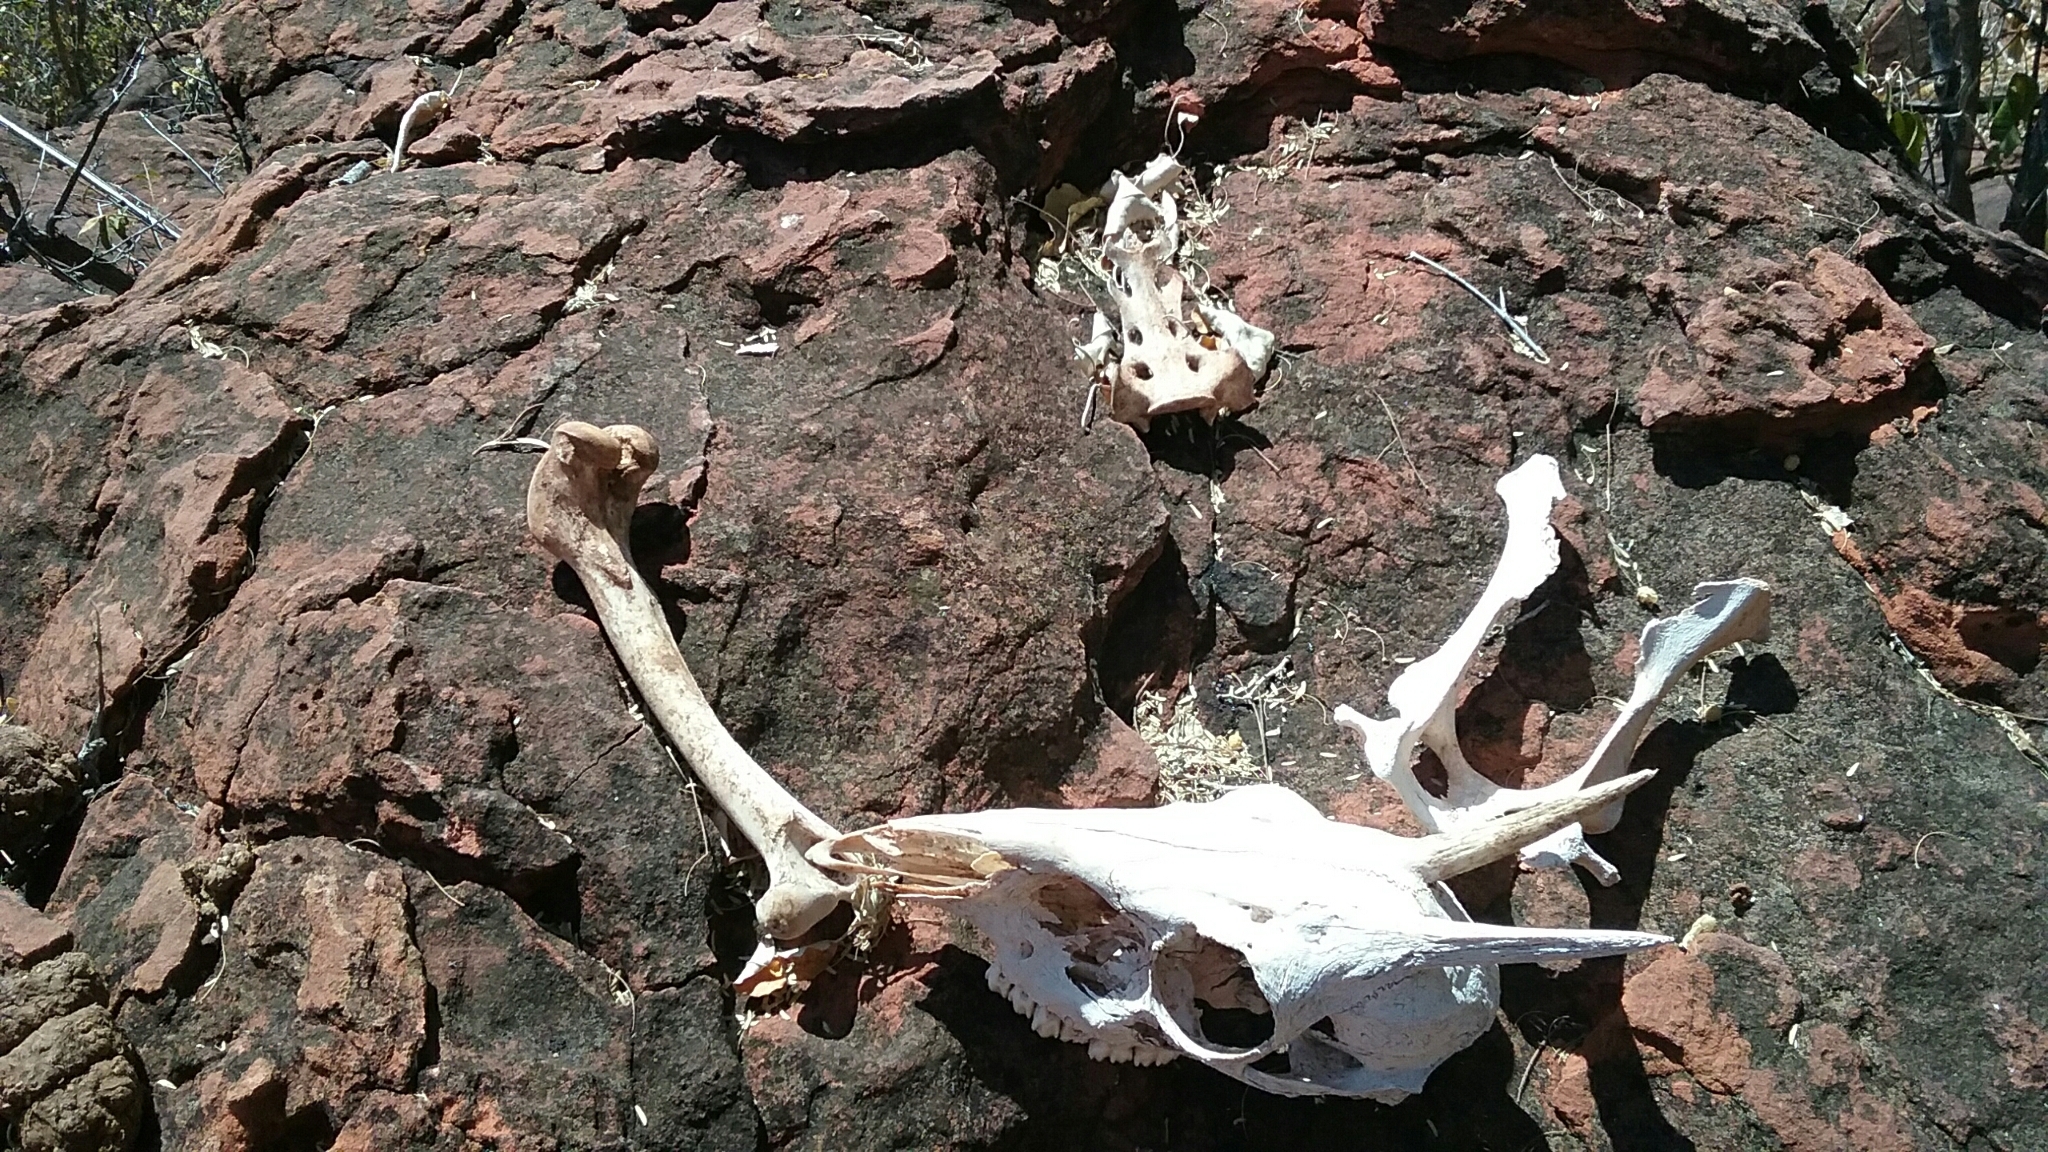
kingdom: Animalia
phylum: Chordata
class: Mammalia
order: Artiodactyla
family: Bovidae
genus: Oreotragus
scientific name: Oreotragus oreotragus
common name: Klipspringer
